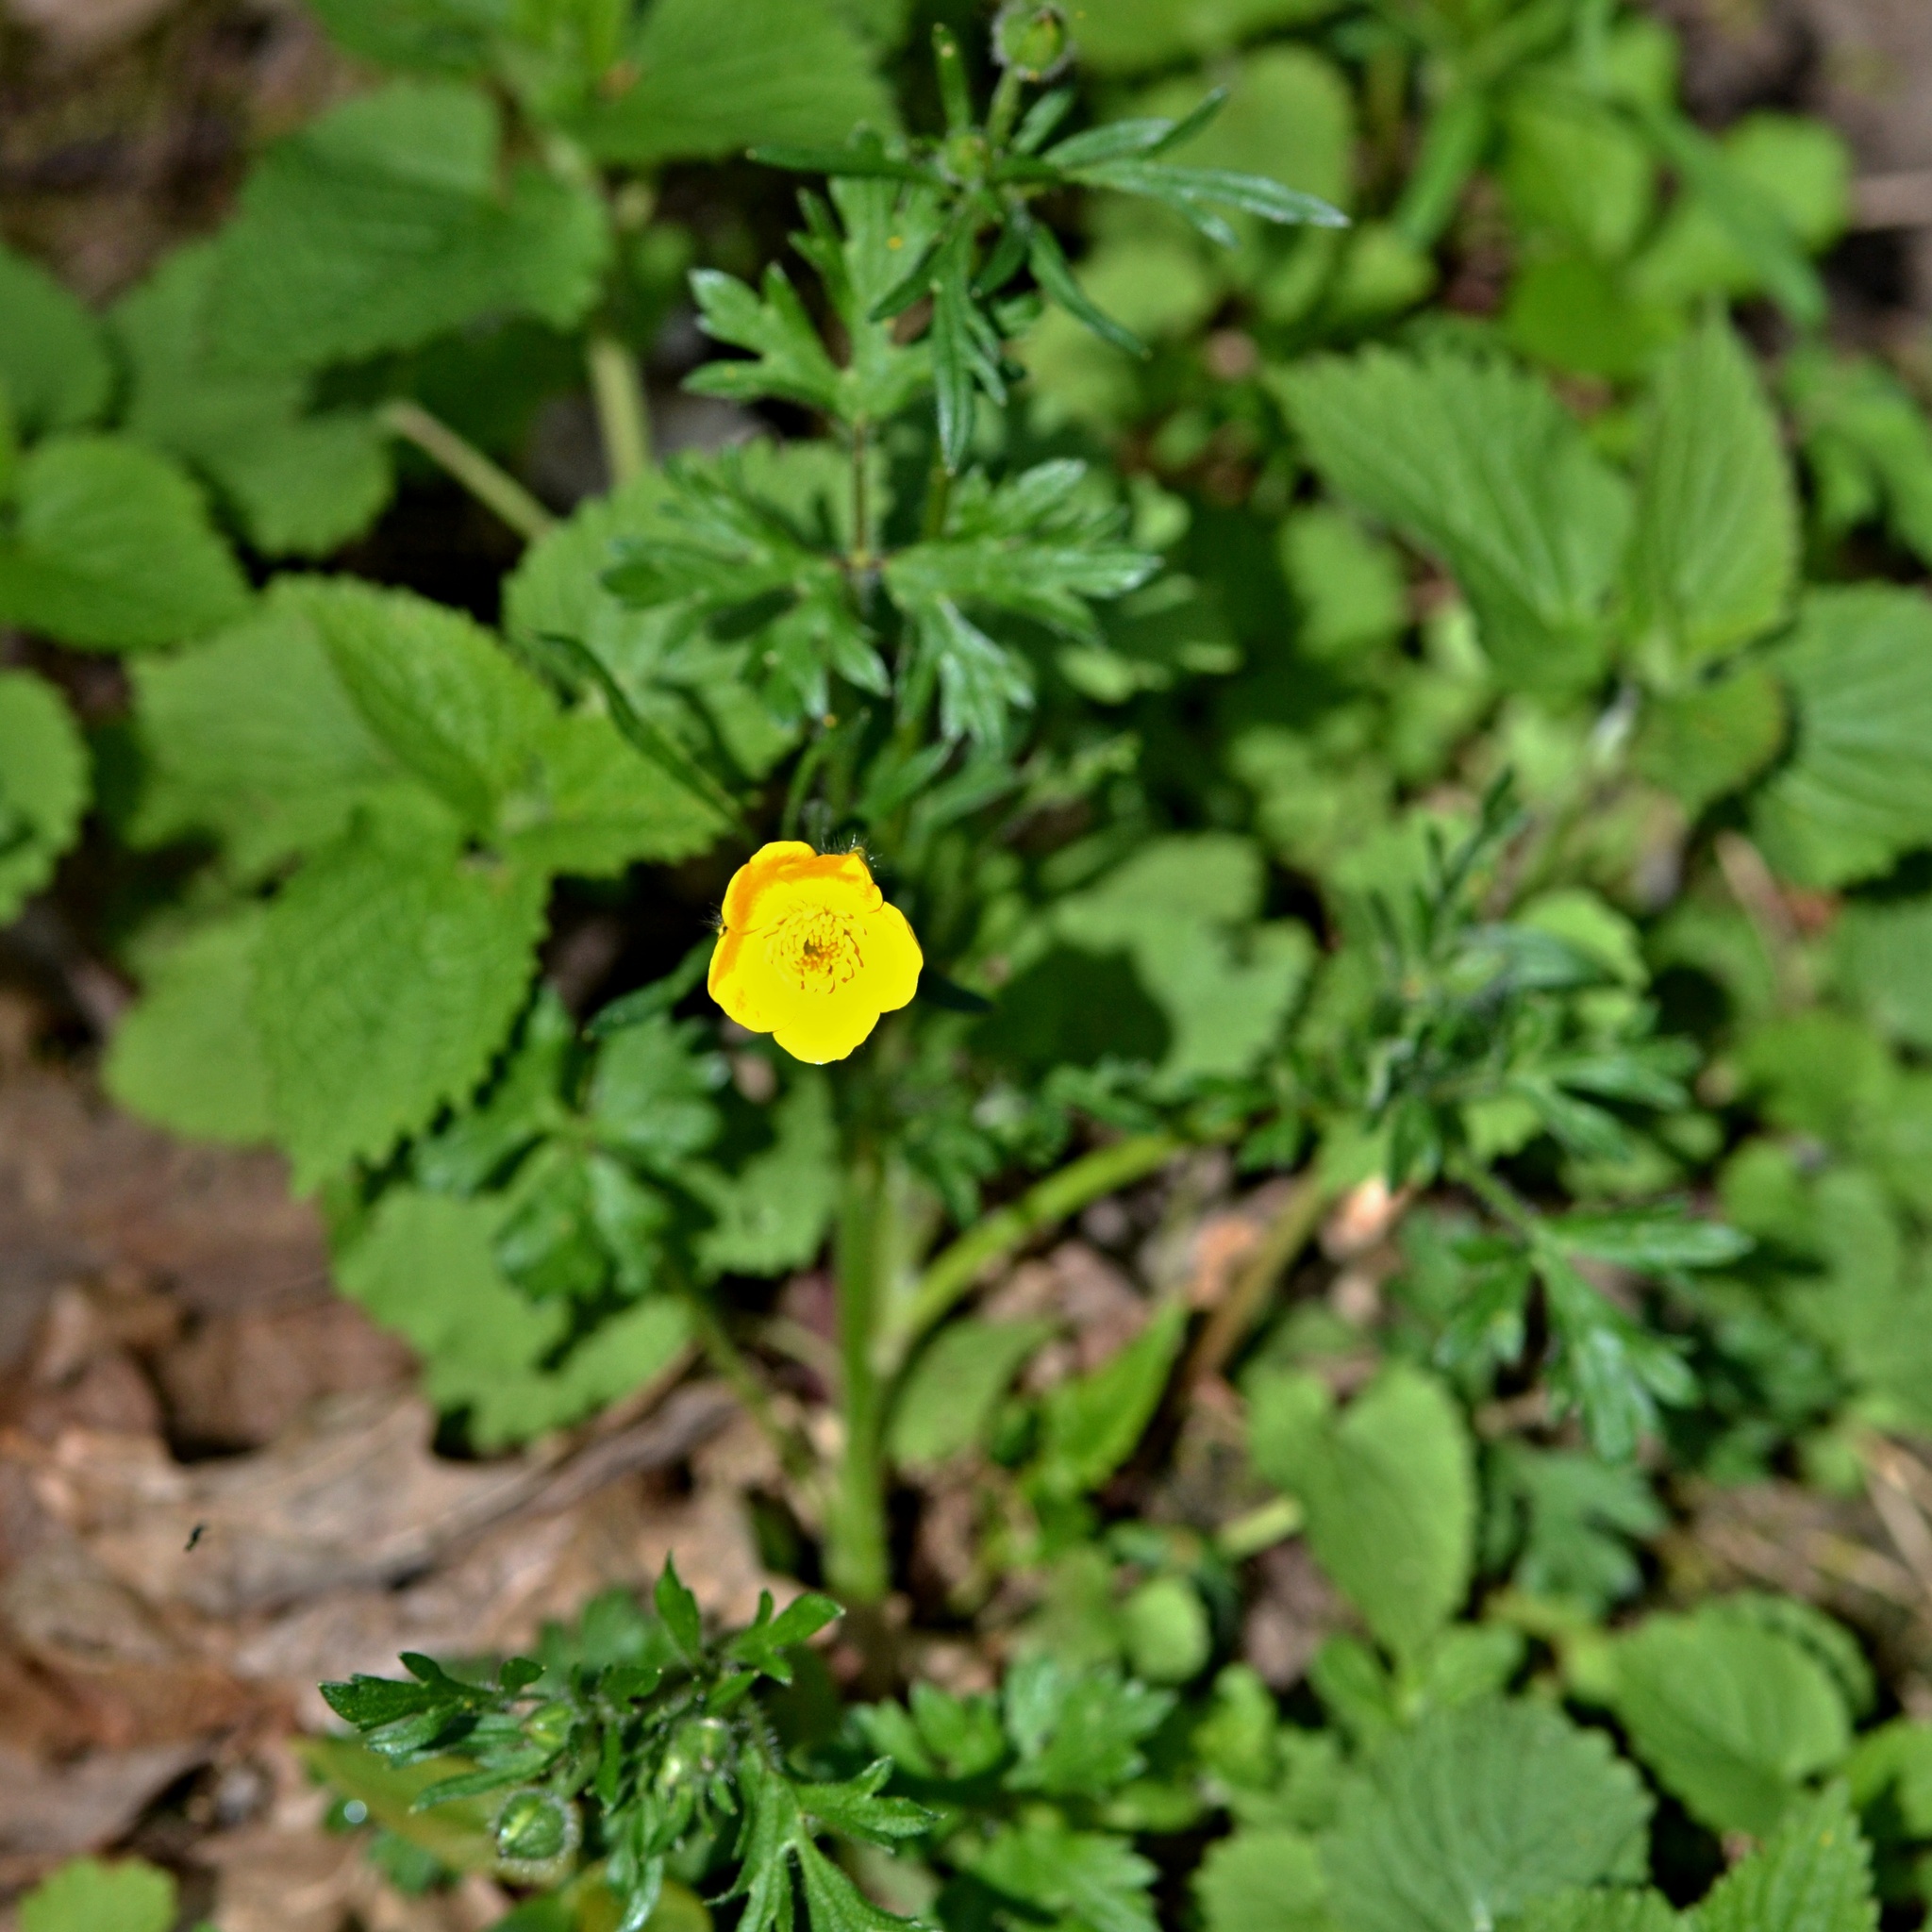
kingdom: Plantae
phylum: Tracheophyta
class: Magnoliopsida
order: Ranunculales
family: Ranunculaceae
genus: Ranunculus
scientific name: Ranunculus bulbosus
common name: Bulbous buttercup
